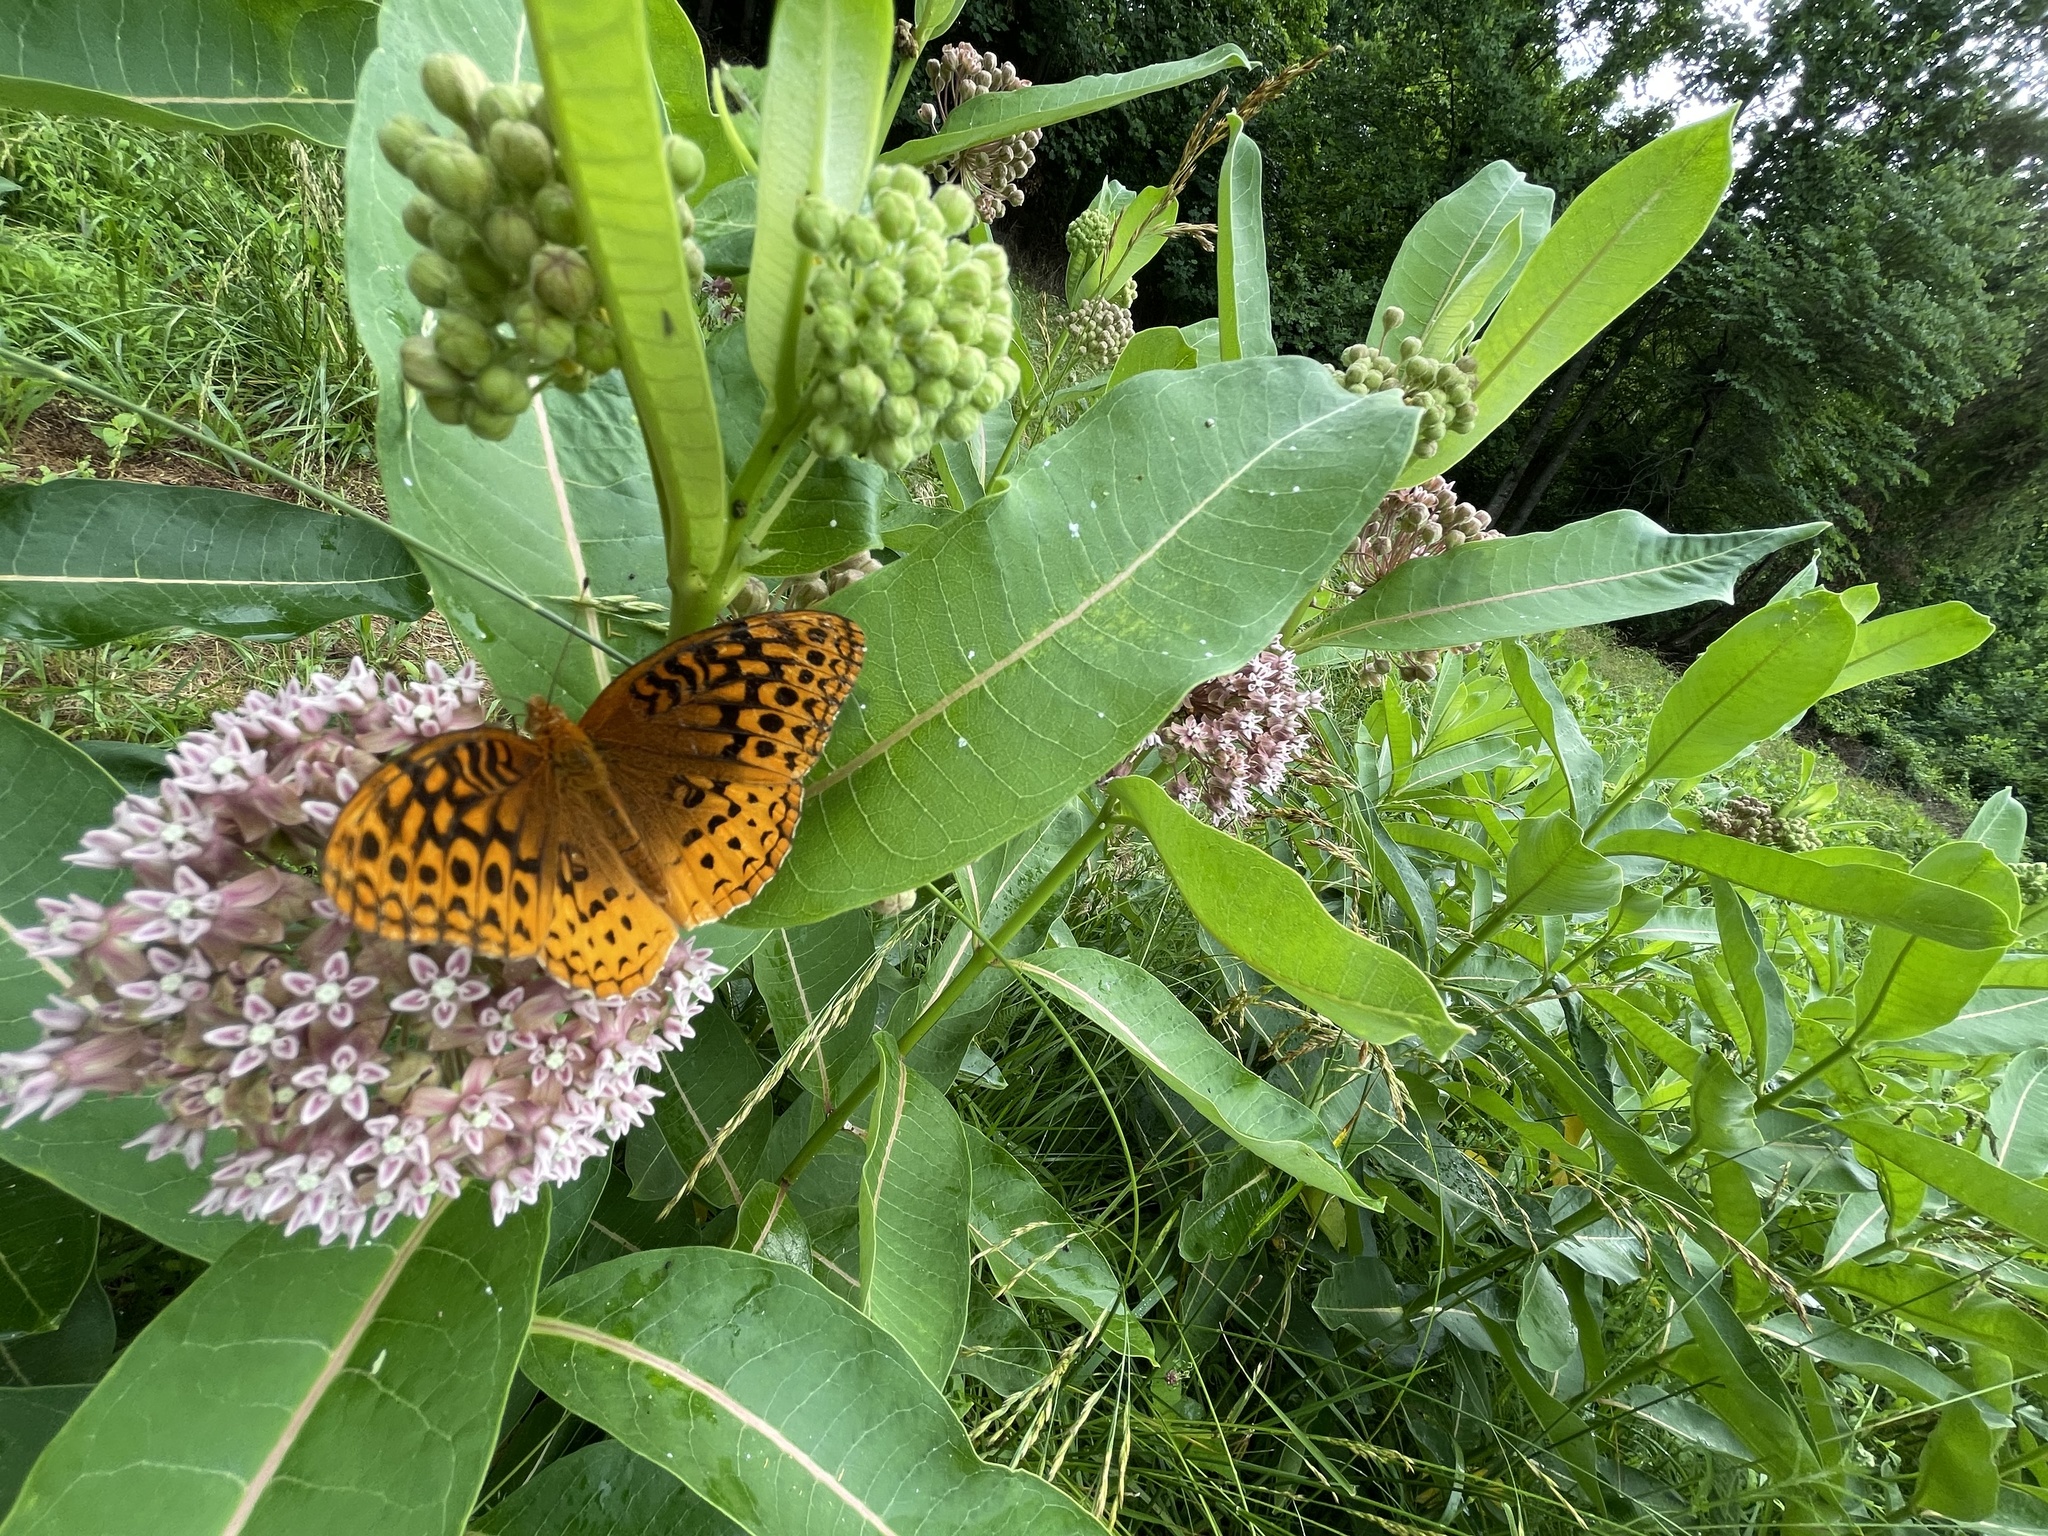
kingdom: Animalia
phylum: Arthropoda
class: Insecta
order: Lepidoptera
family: Nymphalidae
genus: Speyeria
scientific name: Speyeria cybele
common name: Great spangled fritillary
